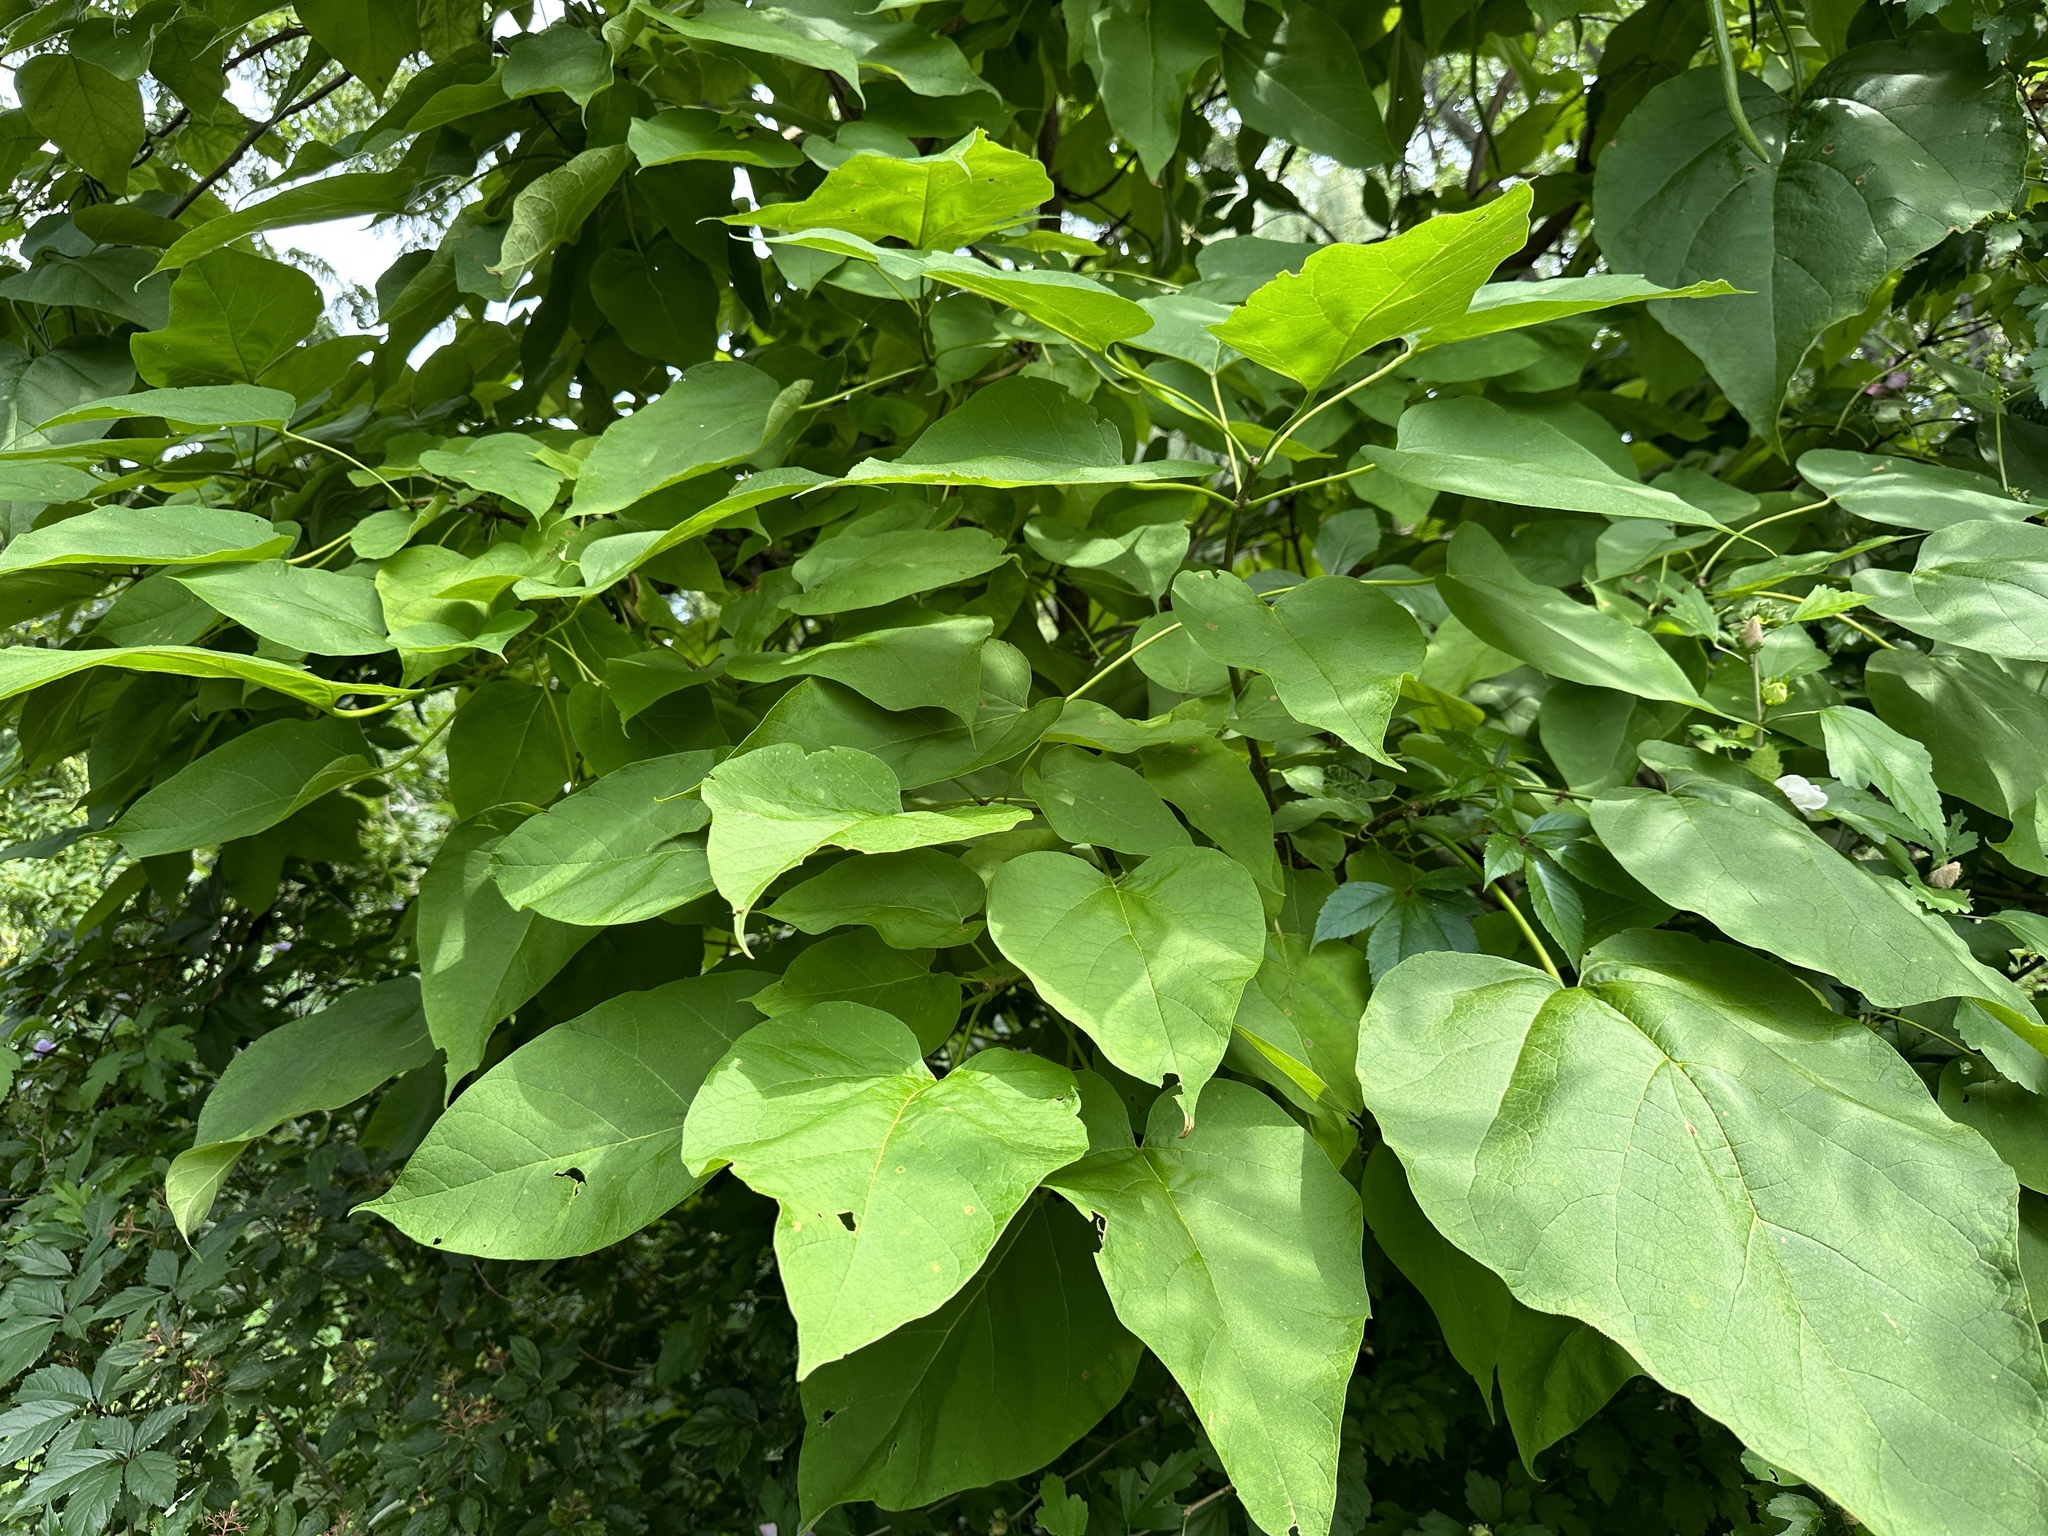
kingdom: Plantae
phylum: Tracheophyta
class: Magnoliopsida
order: Lamiales
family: Bignoniaceae
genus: Catalpa
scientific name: Catalpa speciosa
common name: Northern catalpa
